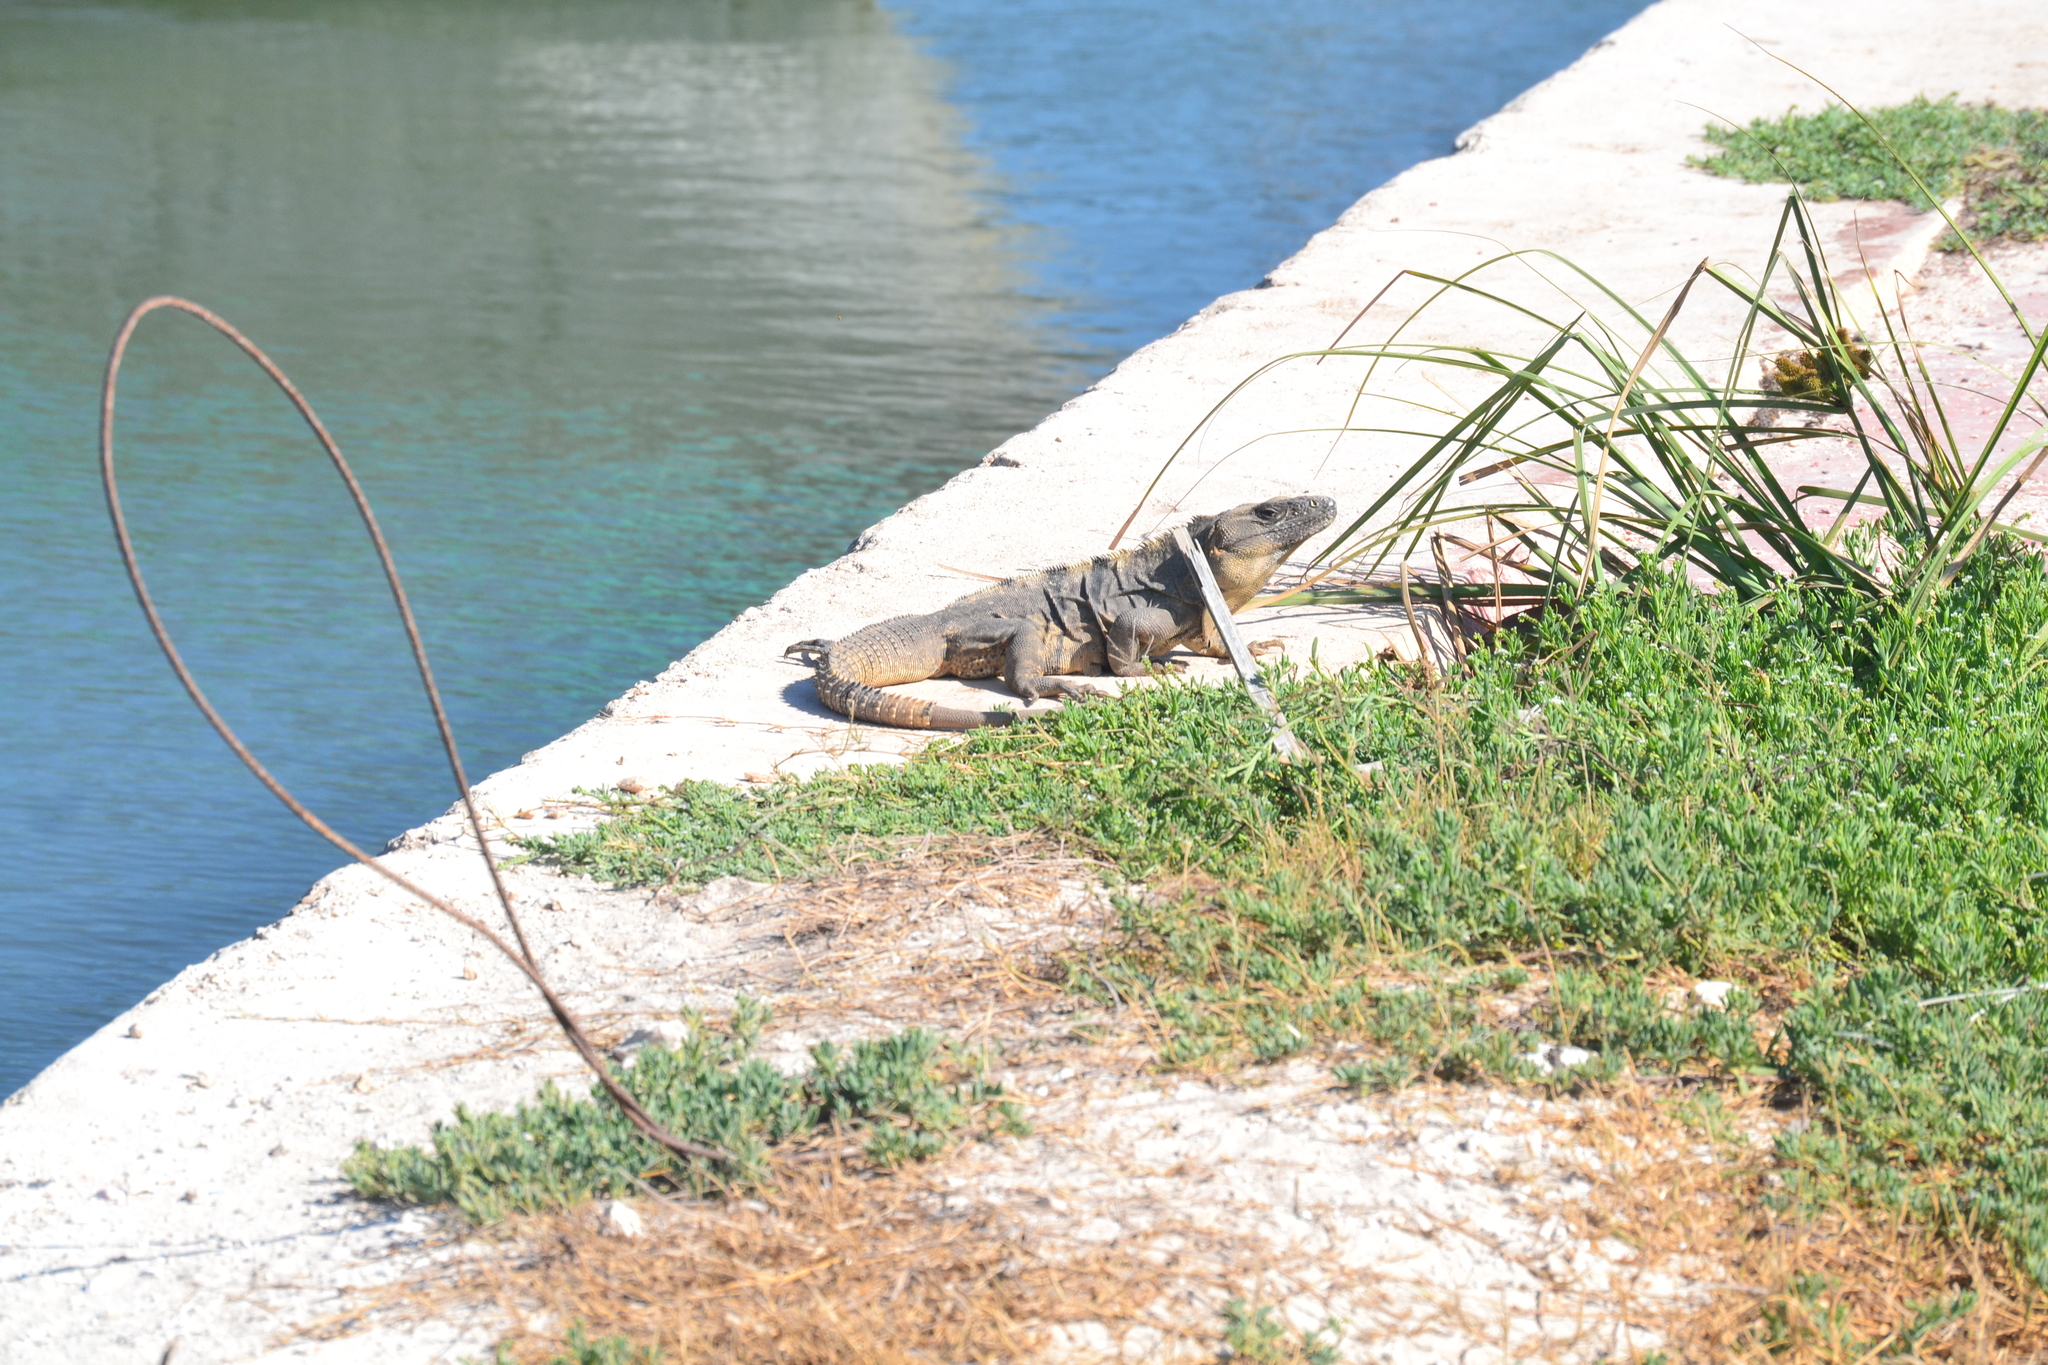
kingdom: Animalia
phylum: Chordata
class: Squamata
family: Iguanidae
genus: Ctenosaura
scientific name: Ctenosaura similis
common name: Black spiny-tailed iguana
